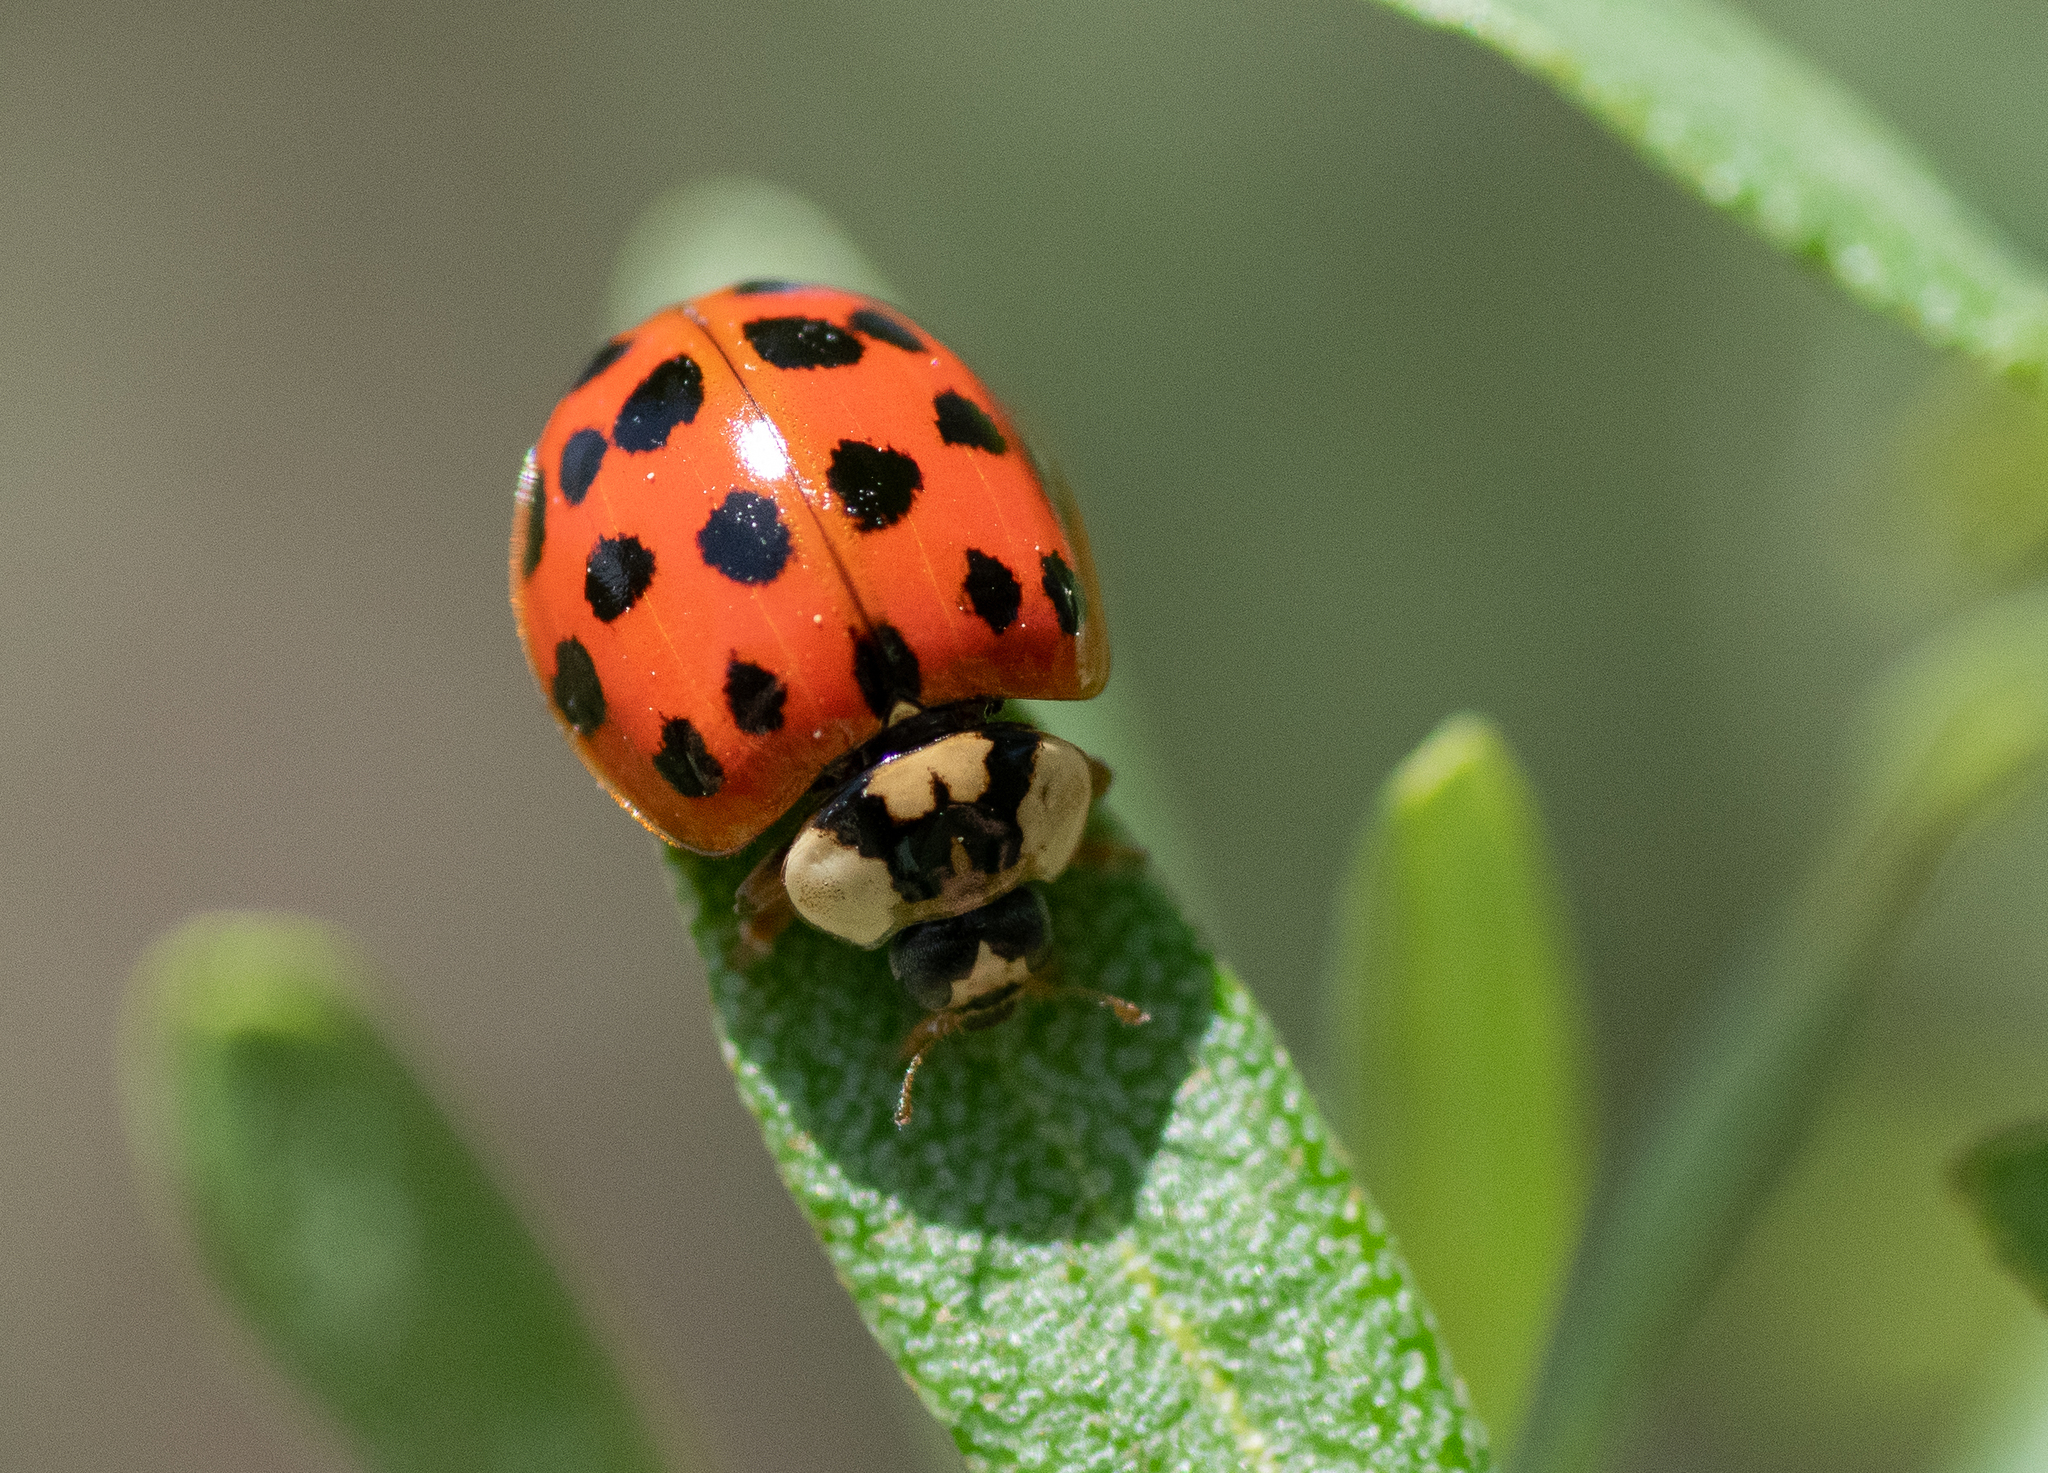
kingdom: Animalia
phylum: Arthropoda
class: Insecta
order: Coleoptera
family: Coccinellidae
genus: Harmonia
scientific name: Harmonia axyridis
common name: Harlequin ladybird
